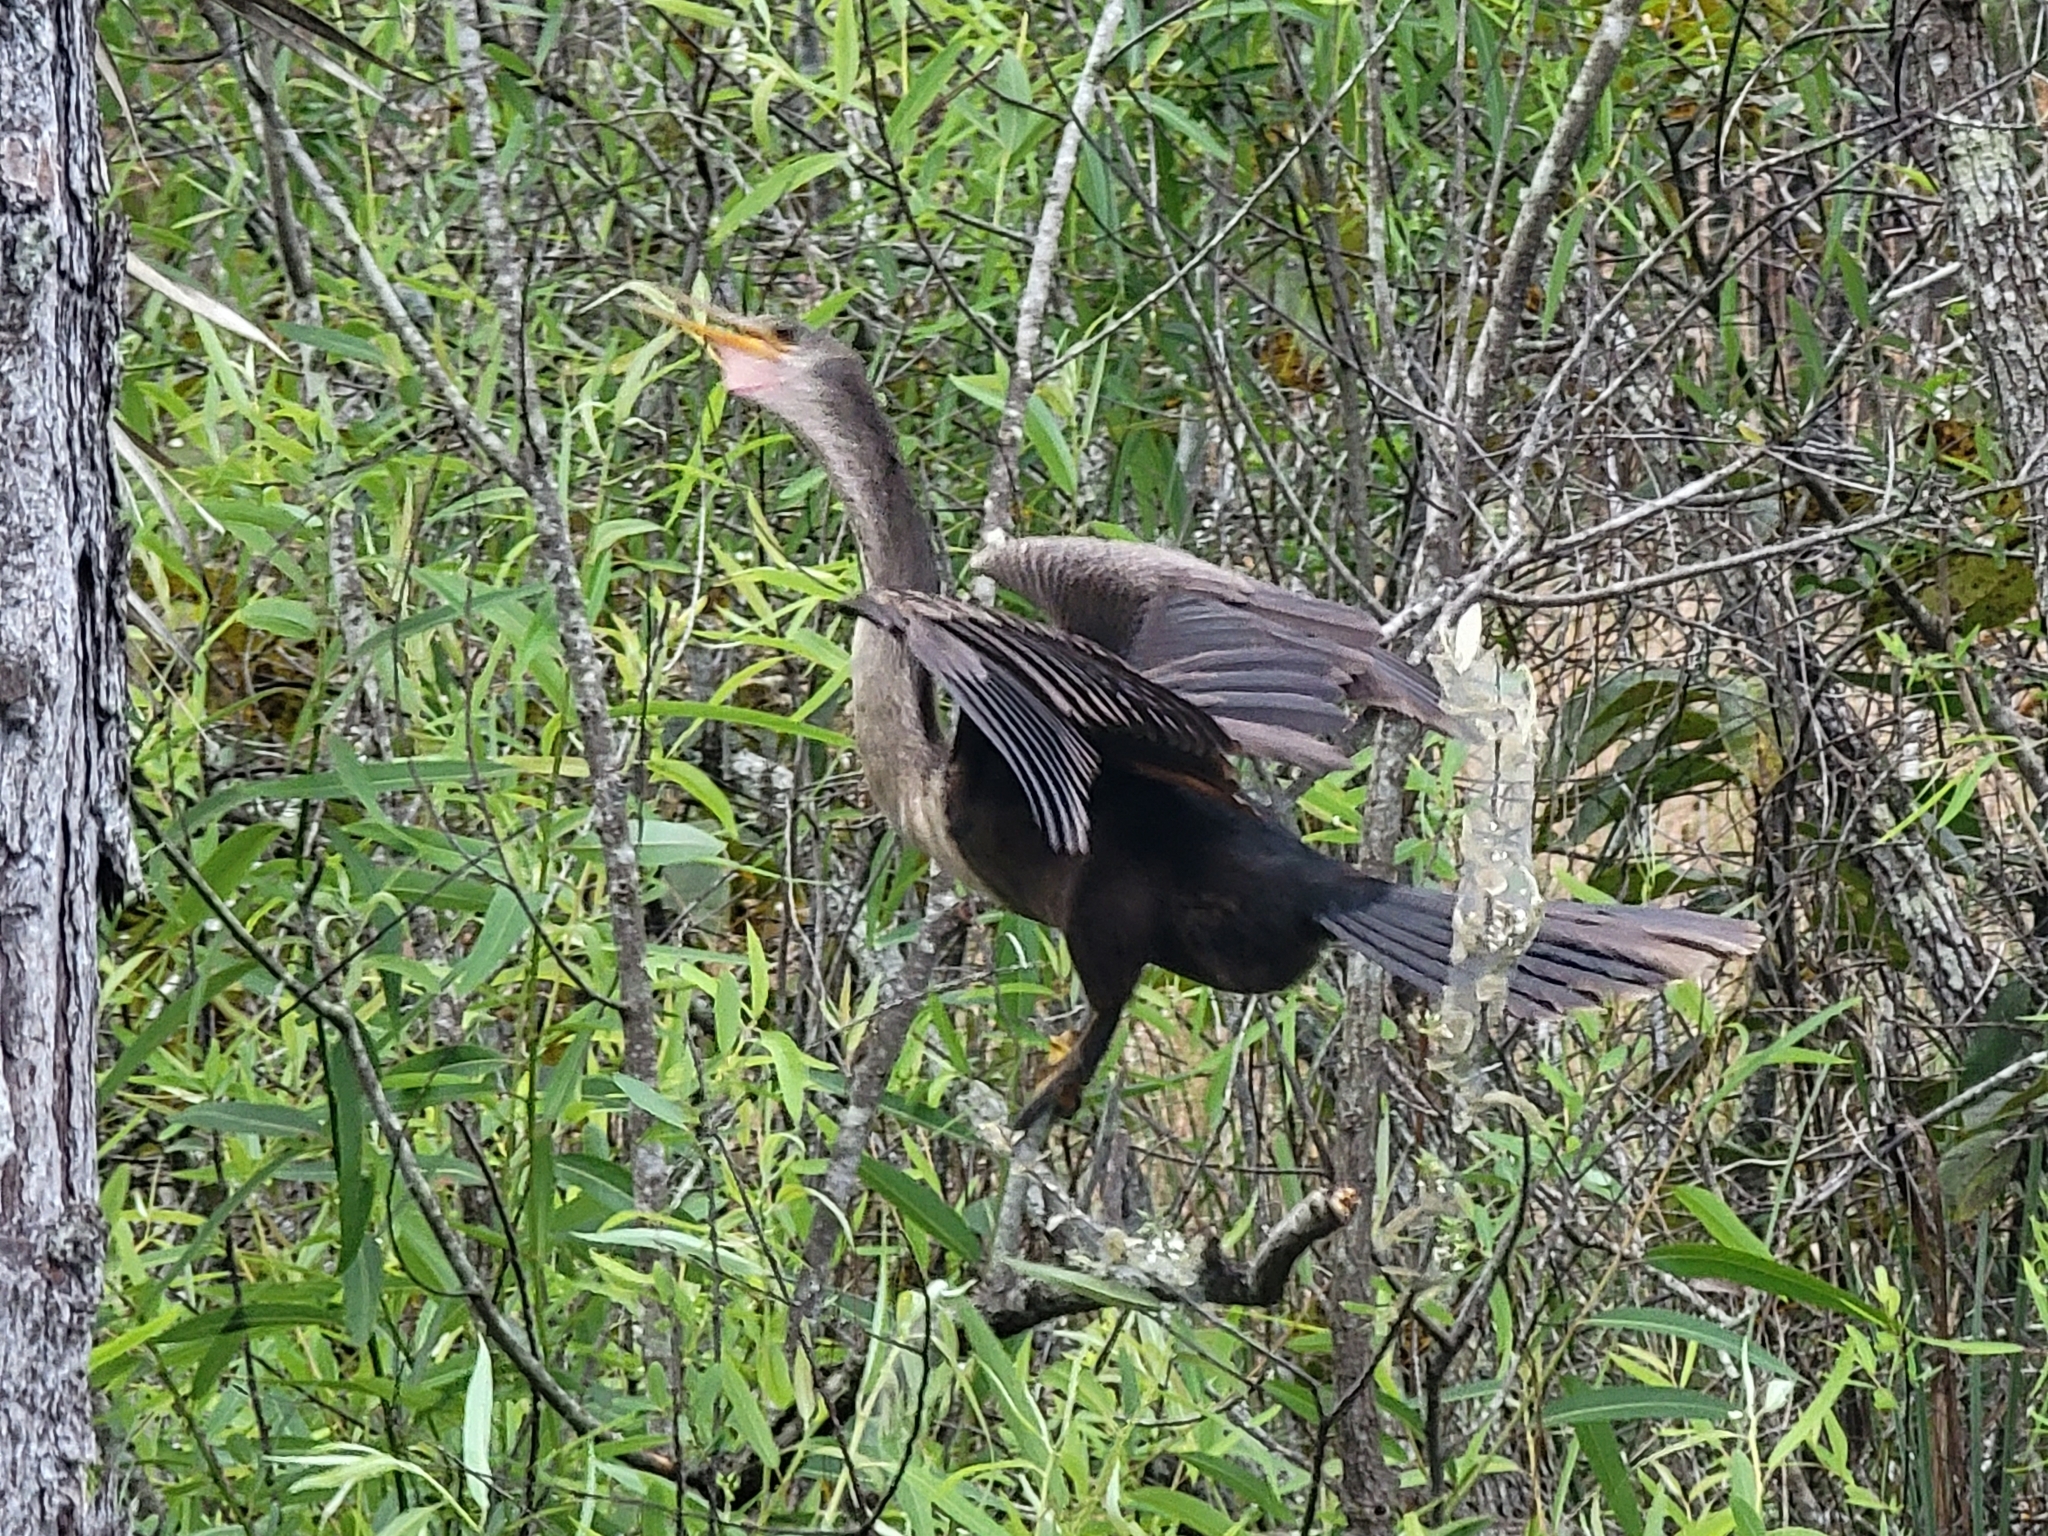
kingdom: Animalia
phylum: Chordata
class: Aves
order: Suliformes
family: Anhingidae
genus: Anhinga
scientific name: Anhinga anhinga
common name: Anhinga
